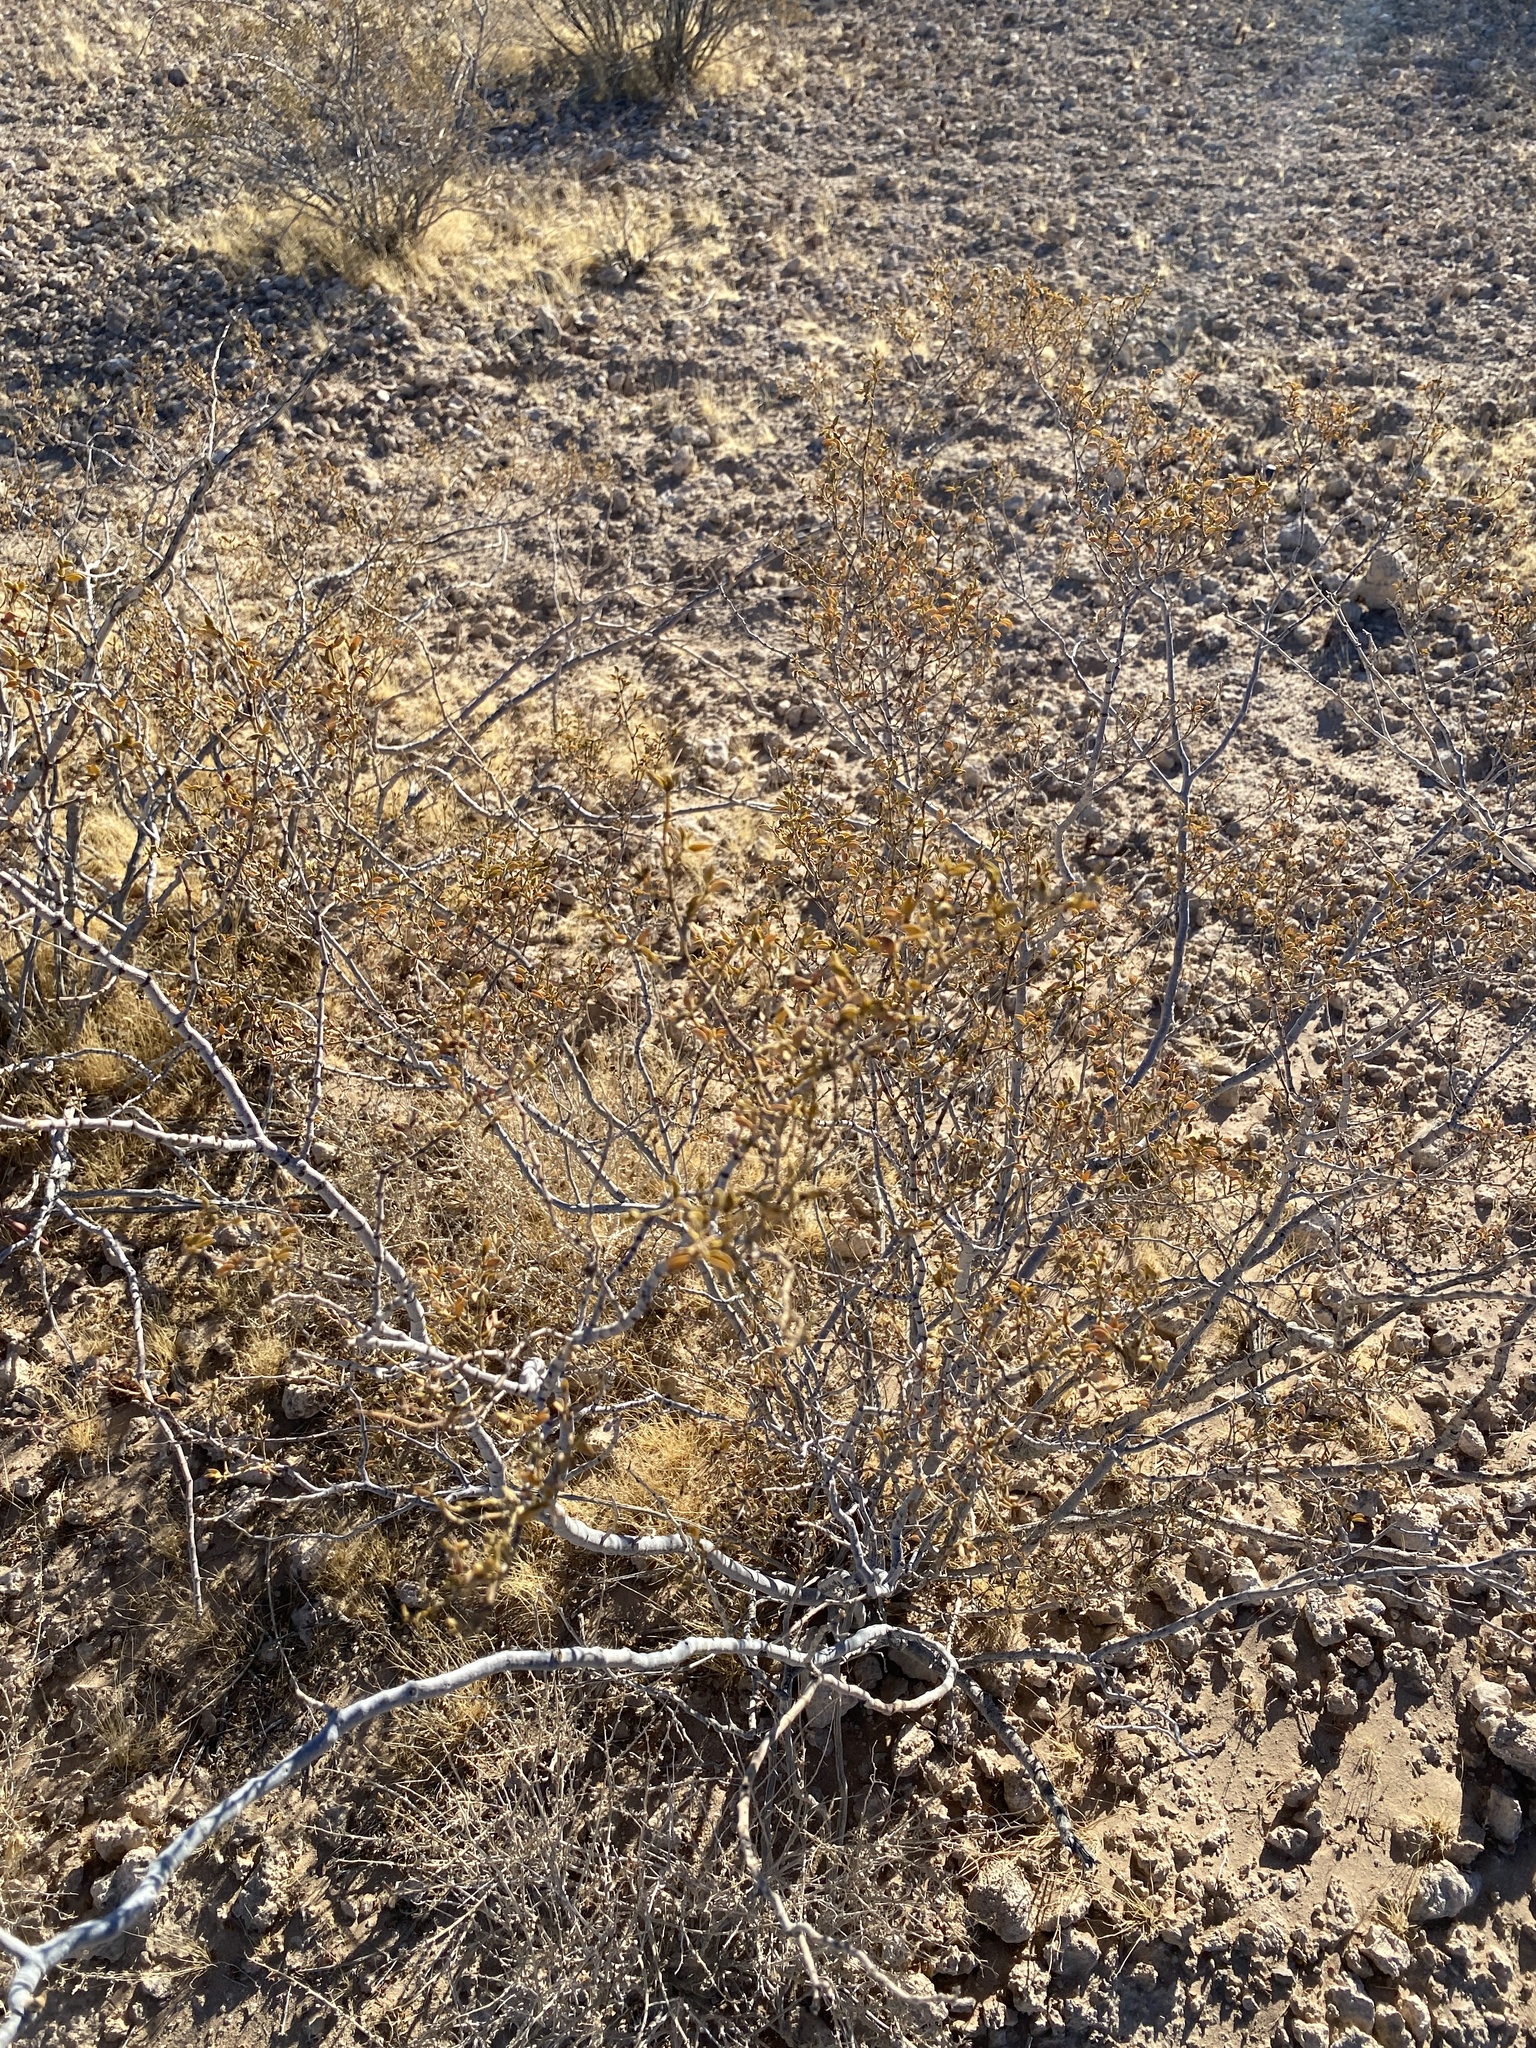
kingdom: Plantae
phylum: Tracheophyta
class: Magnoliopsida
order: Zygophyllales
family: Zygophyllaceae
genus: Larrea
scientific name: Larrea tridentata
